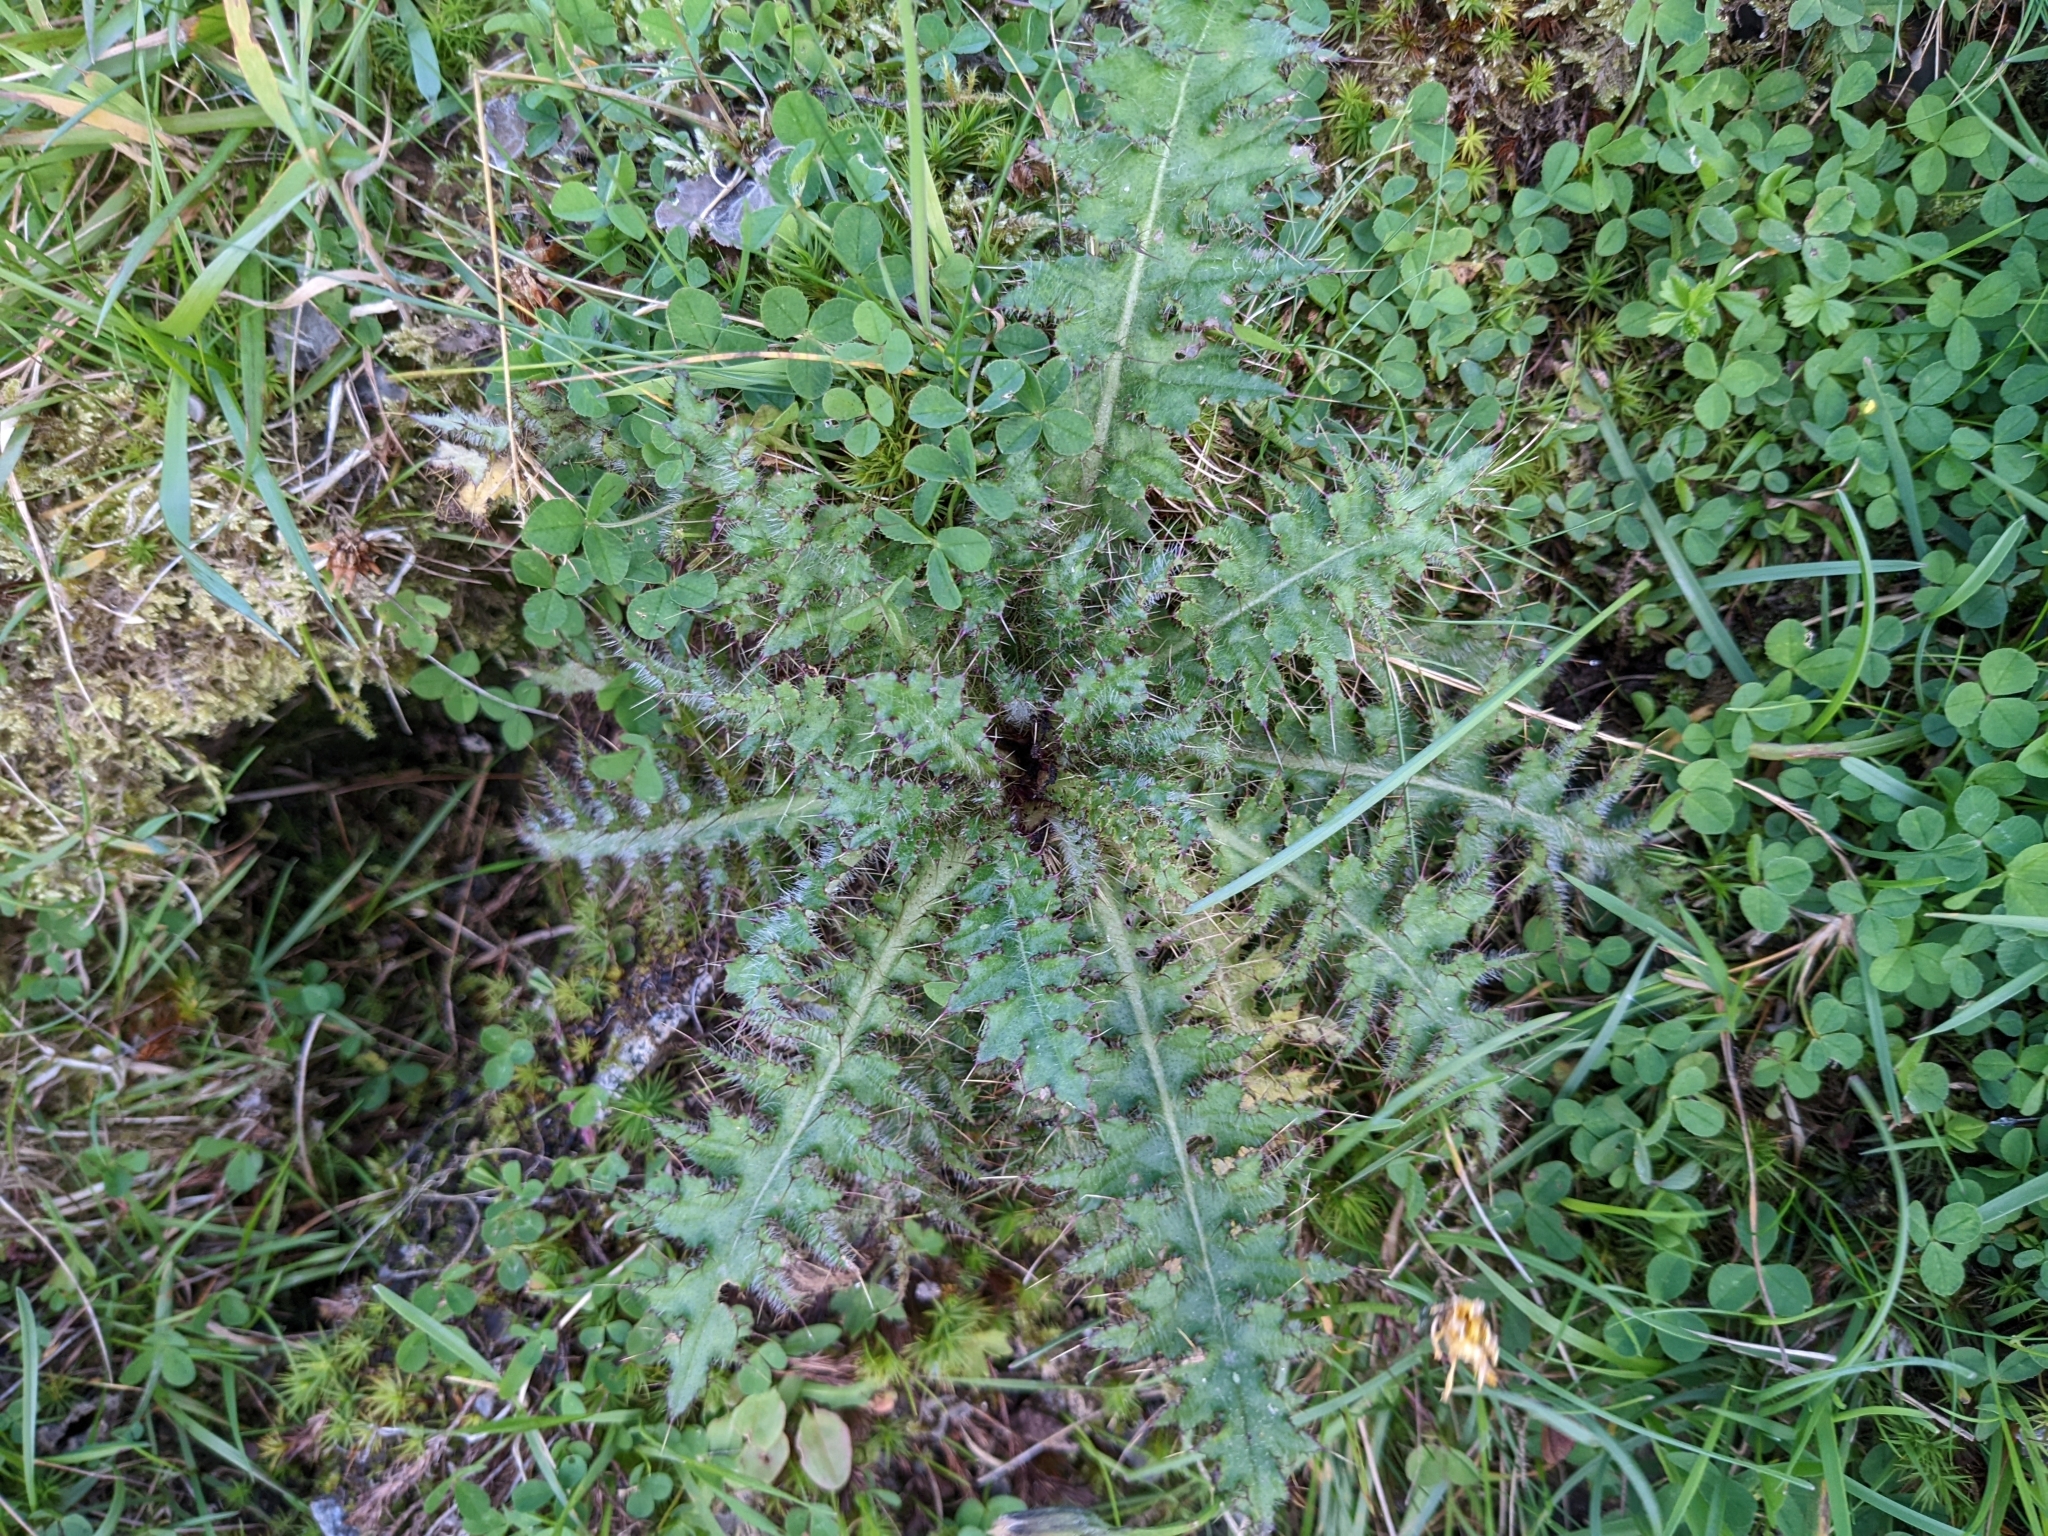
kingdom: Plantae
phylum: Tracheophyta
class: Magnoliopsida
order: Asterales
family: Asteraceae
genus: Cirsium
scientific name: Cirsium palustre
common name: Marsh thistle
